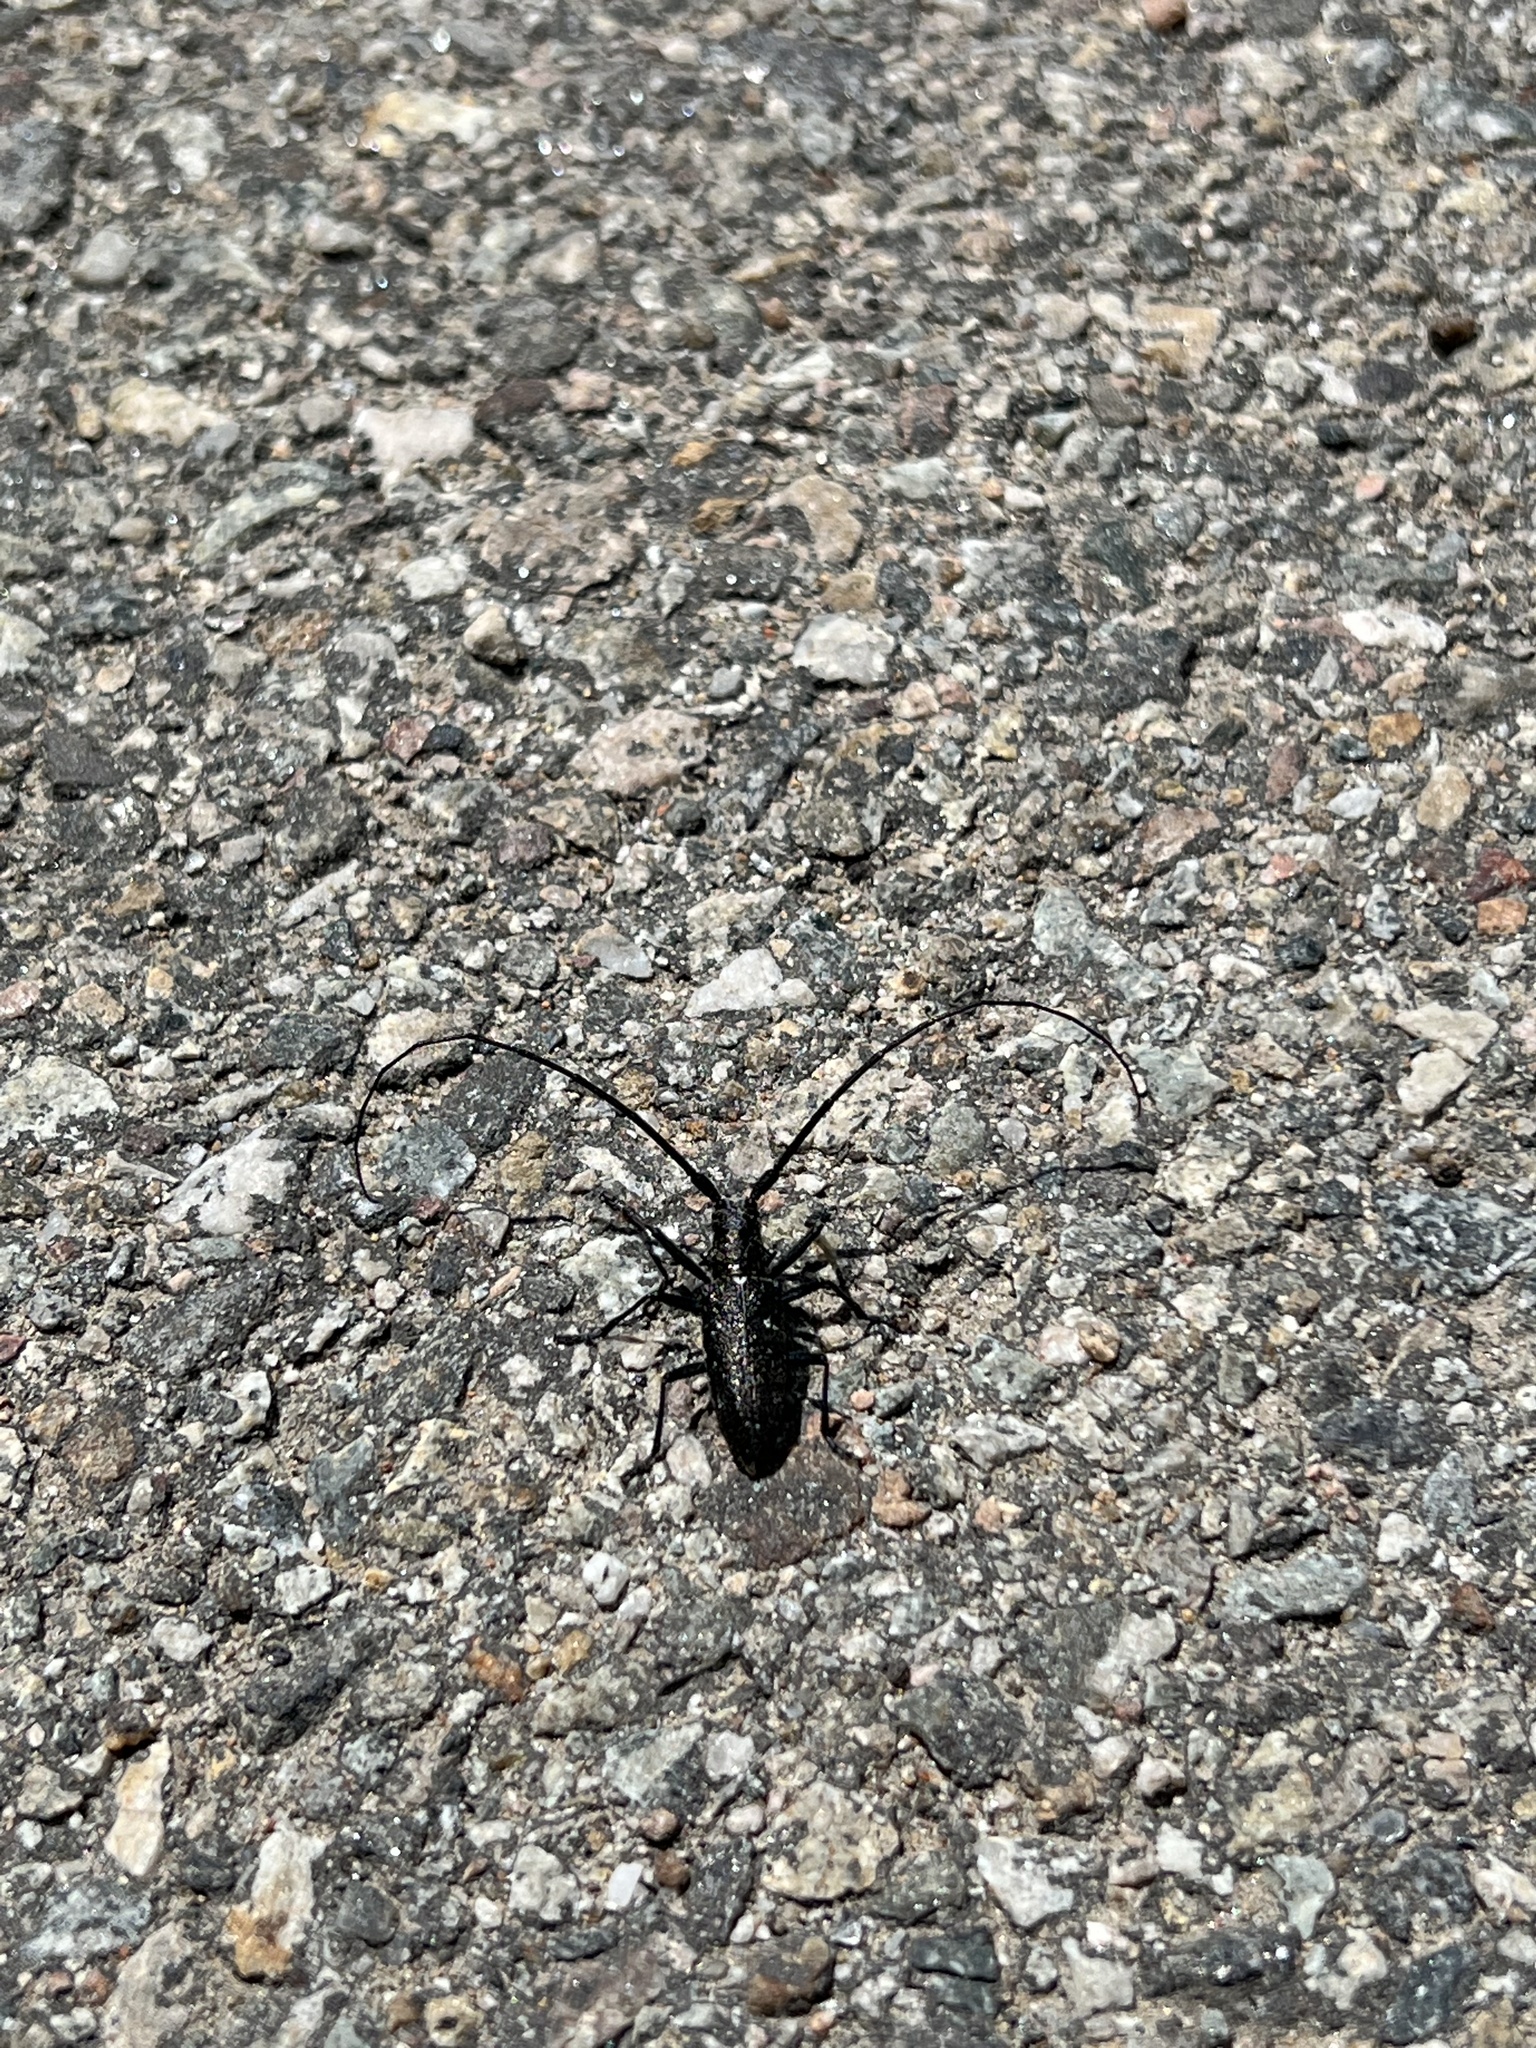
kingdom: Animalia
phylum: Arthropoda
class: Insecta
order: Coleoptera
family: Cerambycidae
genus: Monochamus
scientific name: Monochamus scutellatus
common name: White-spotted sawyer beetle
